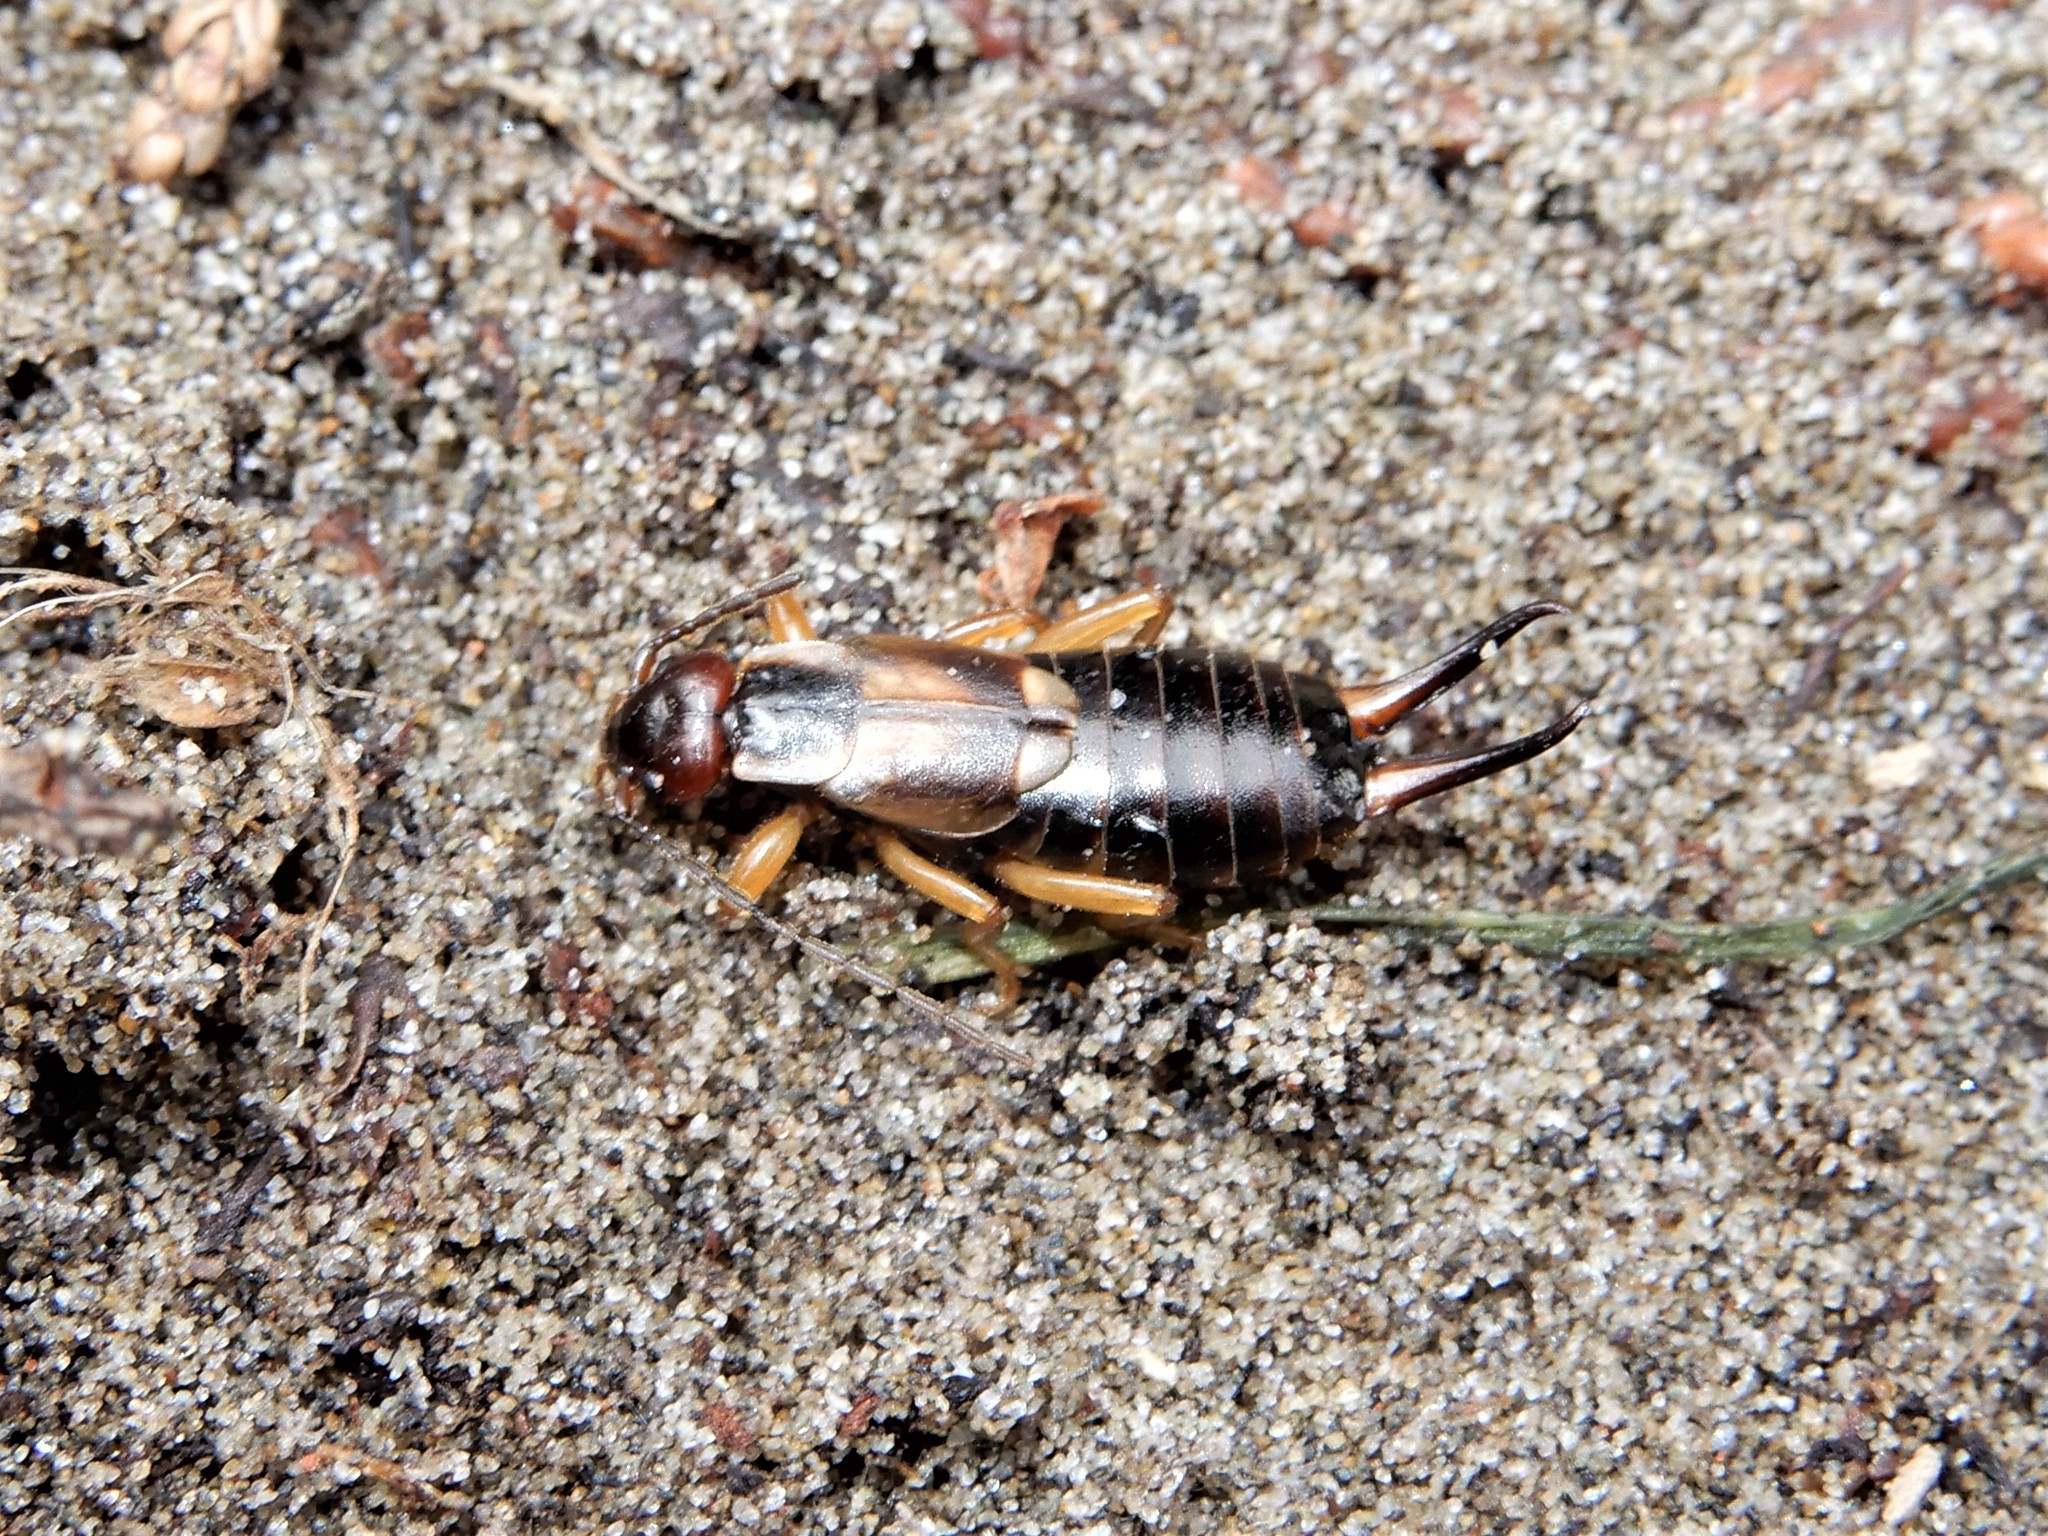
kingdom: Animalia
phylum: Arthropoda
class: Insecta
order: Dermaptera
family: Forficulidae
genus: Forficula
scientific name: Forficula
